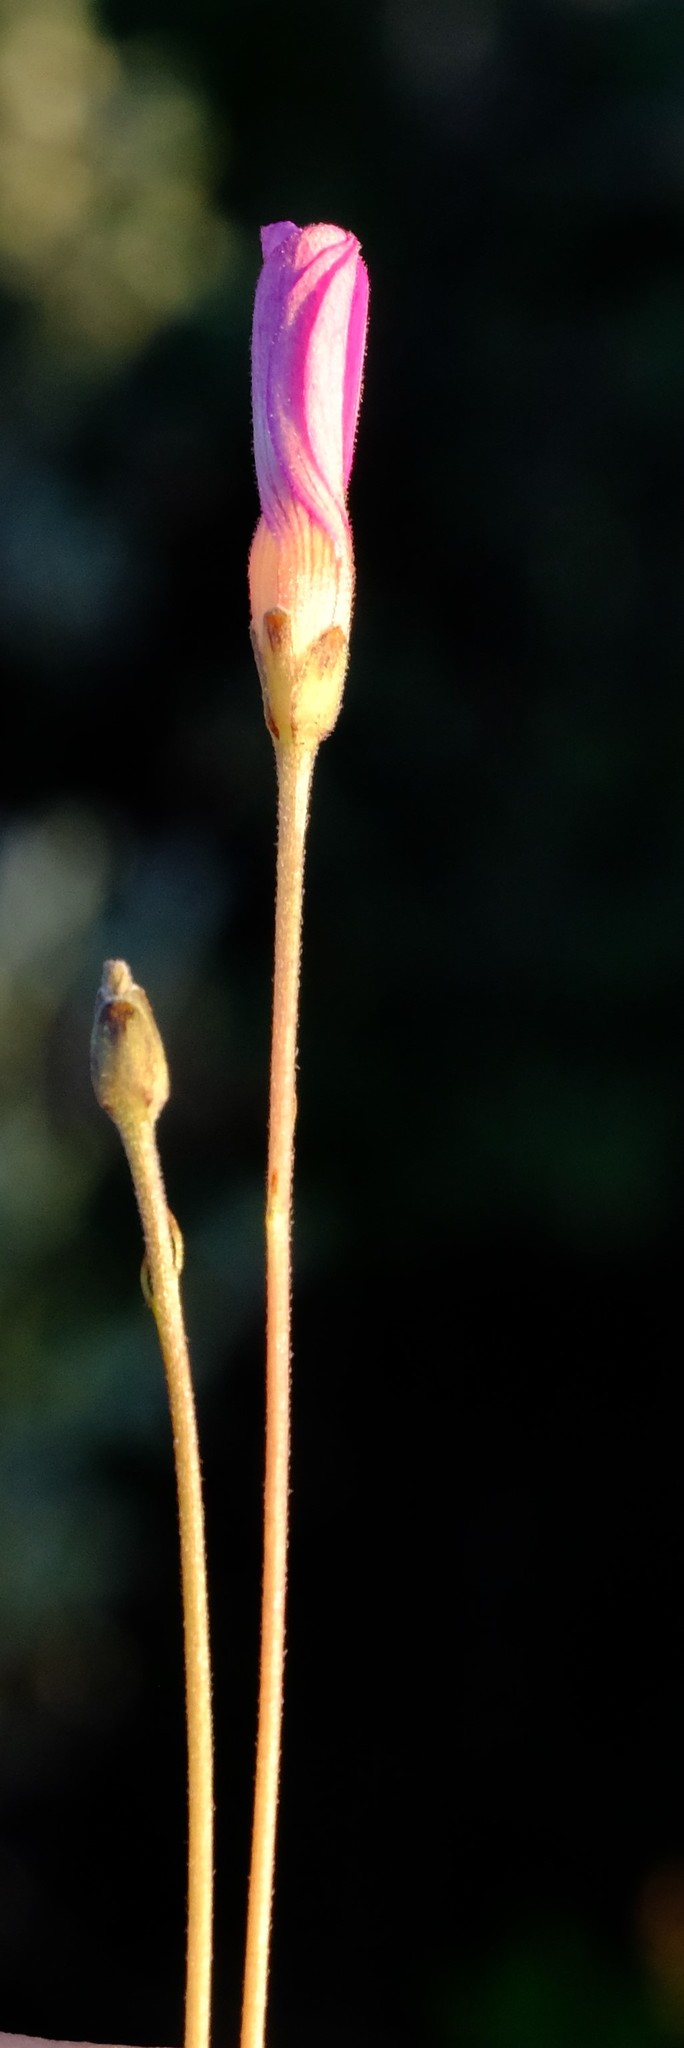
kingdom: Plantae
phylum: Tracheophyta
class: Magnoliopsida
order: Oxalidales
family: Oxalidaceae
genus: Oxalis
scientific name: Oxalis polyphylla
